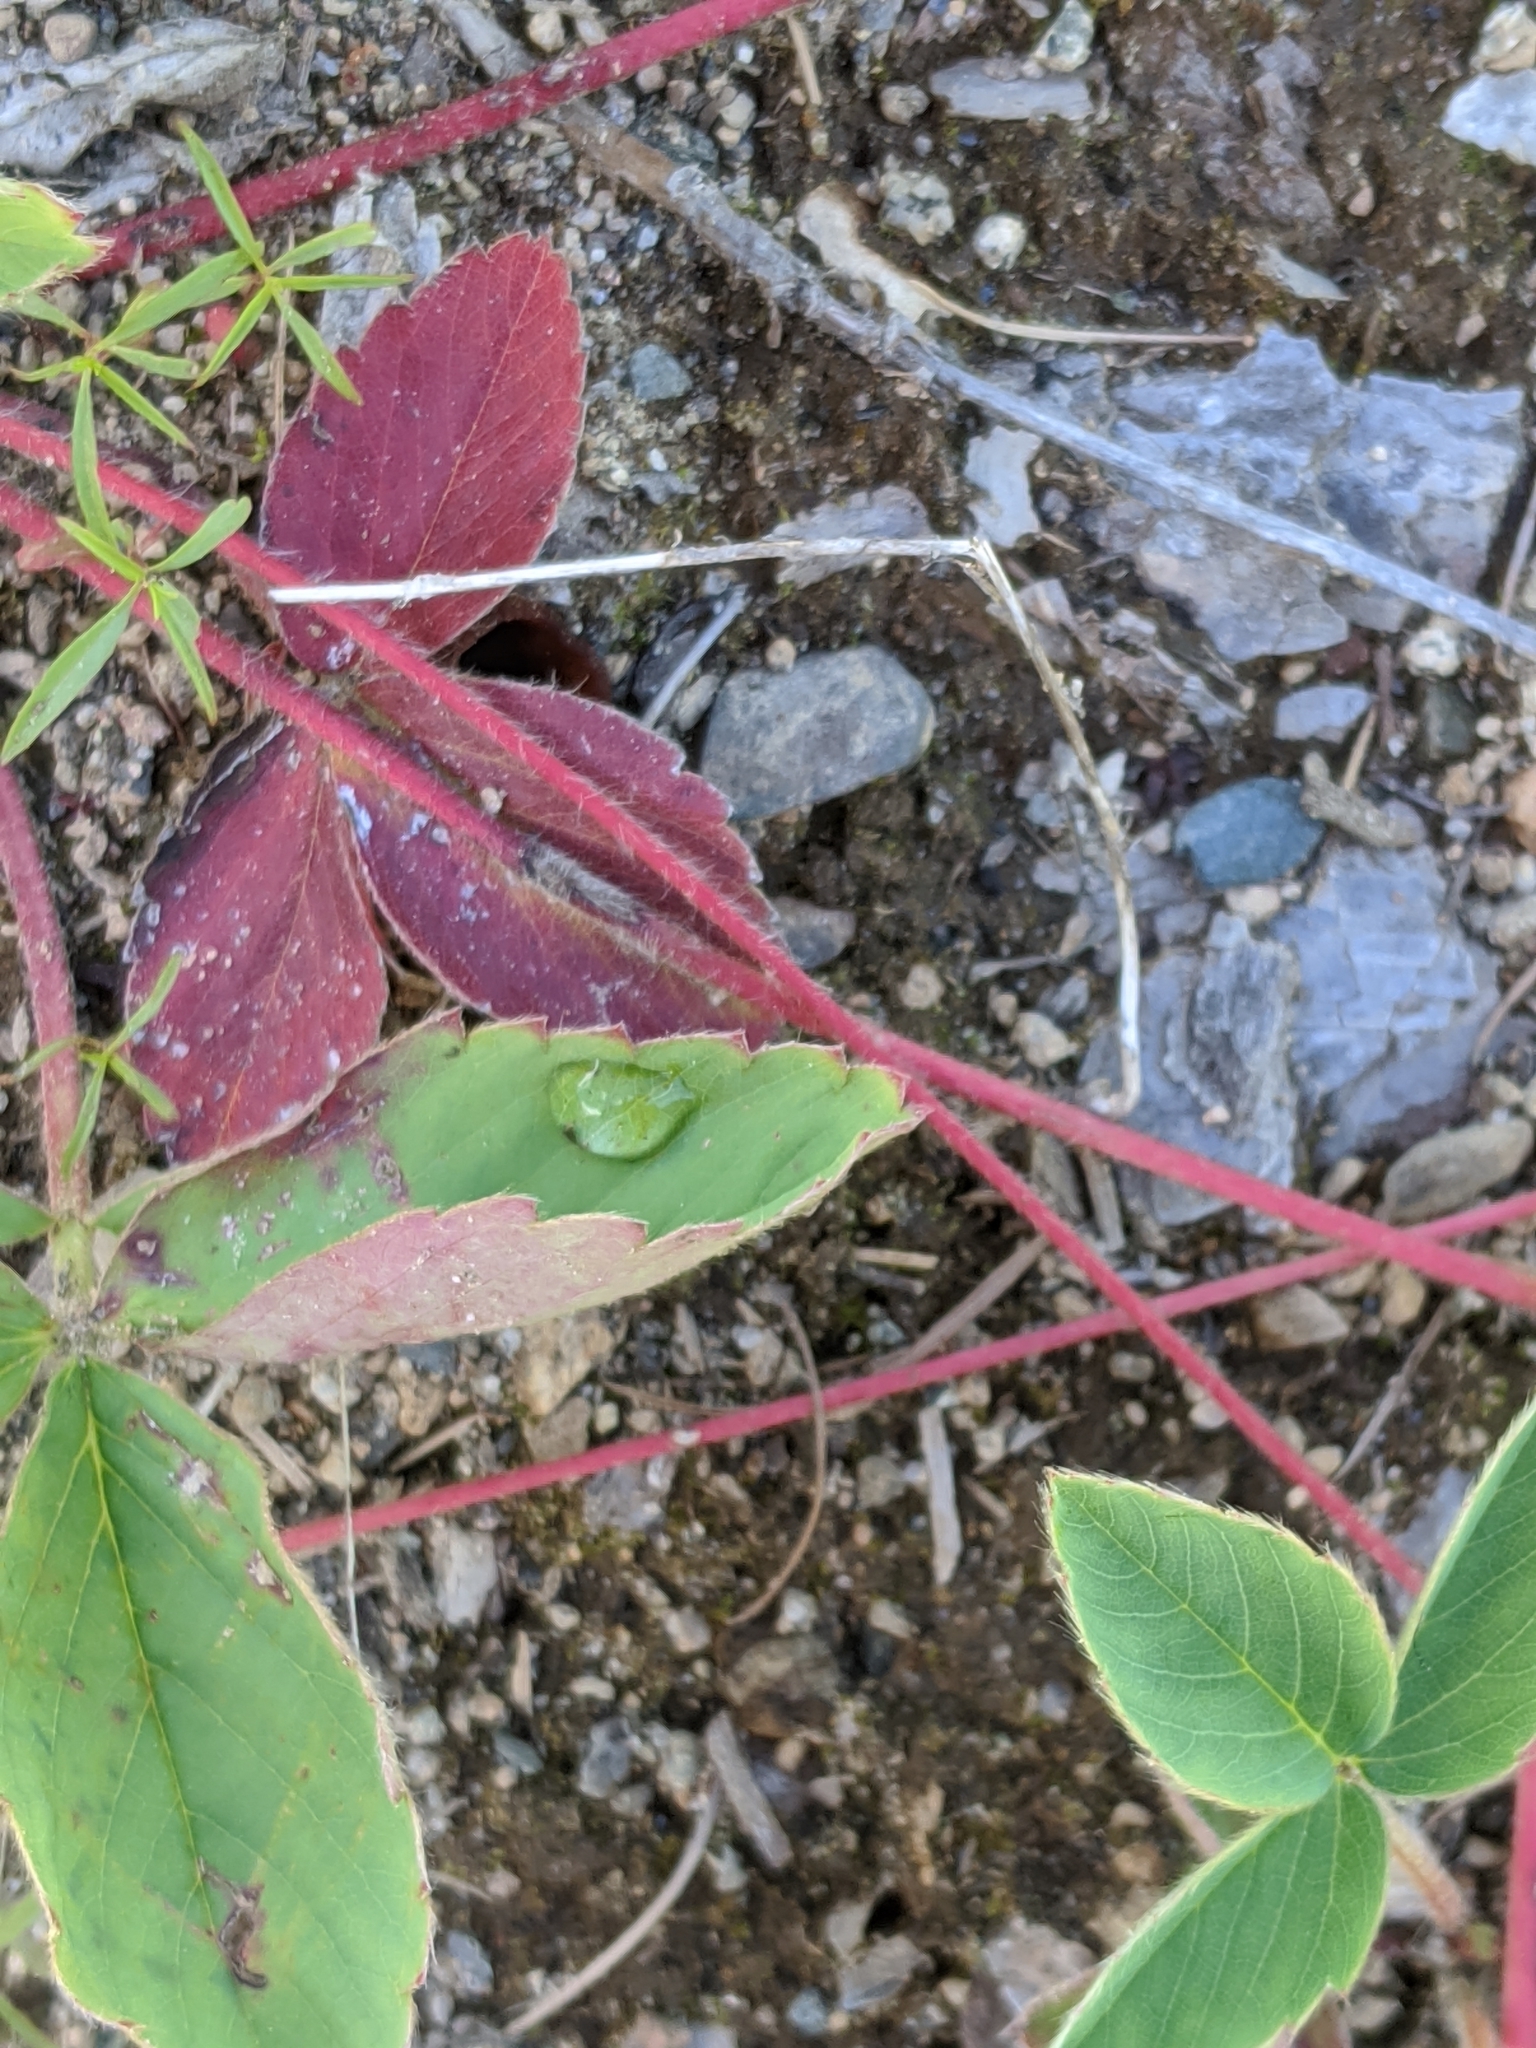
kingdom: Plantae
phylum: Tracheophyta
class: Magnoliopsida
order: Rosales
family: Rosaceae
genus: Fragaria
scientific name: Fragaria virginiana
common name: Thickleaved wild strawberry
